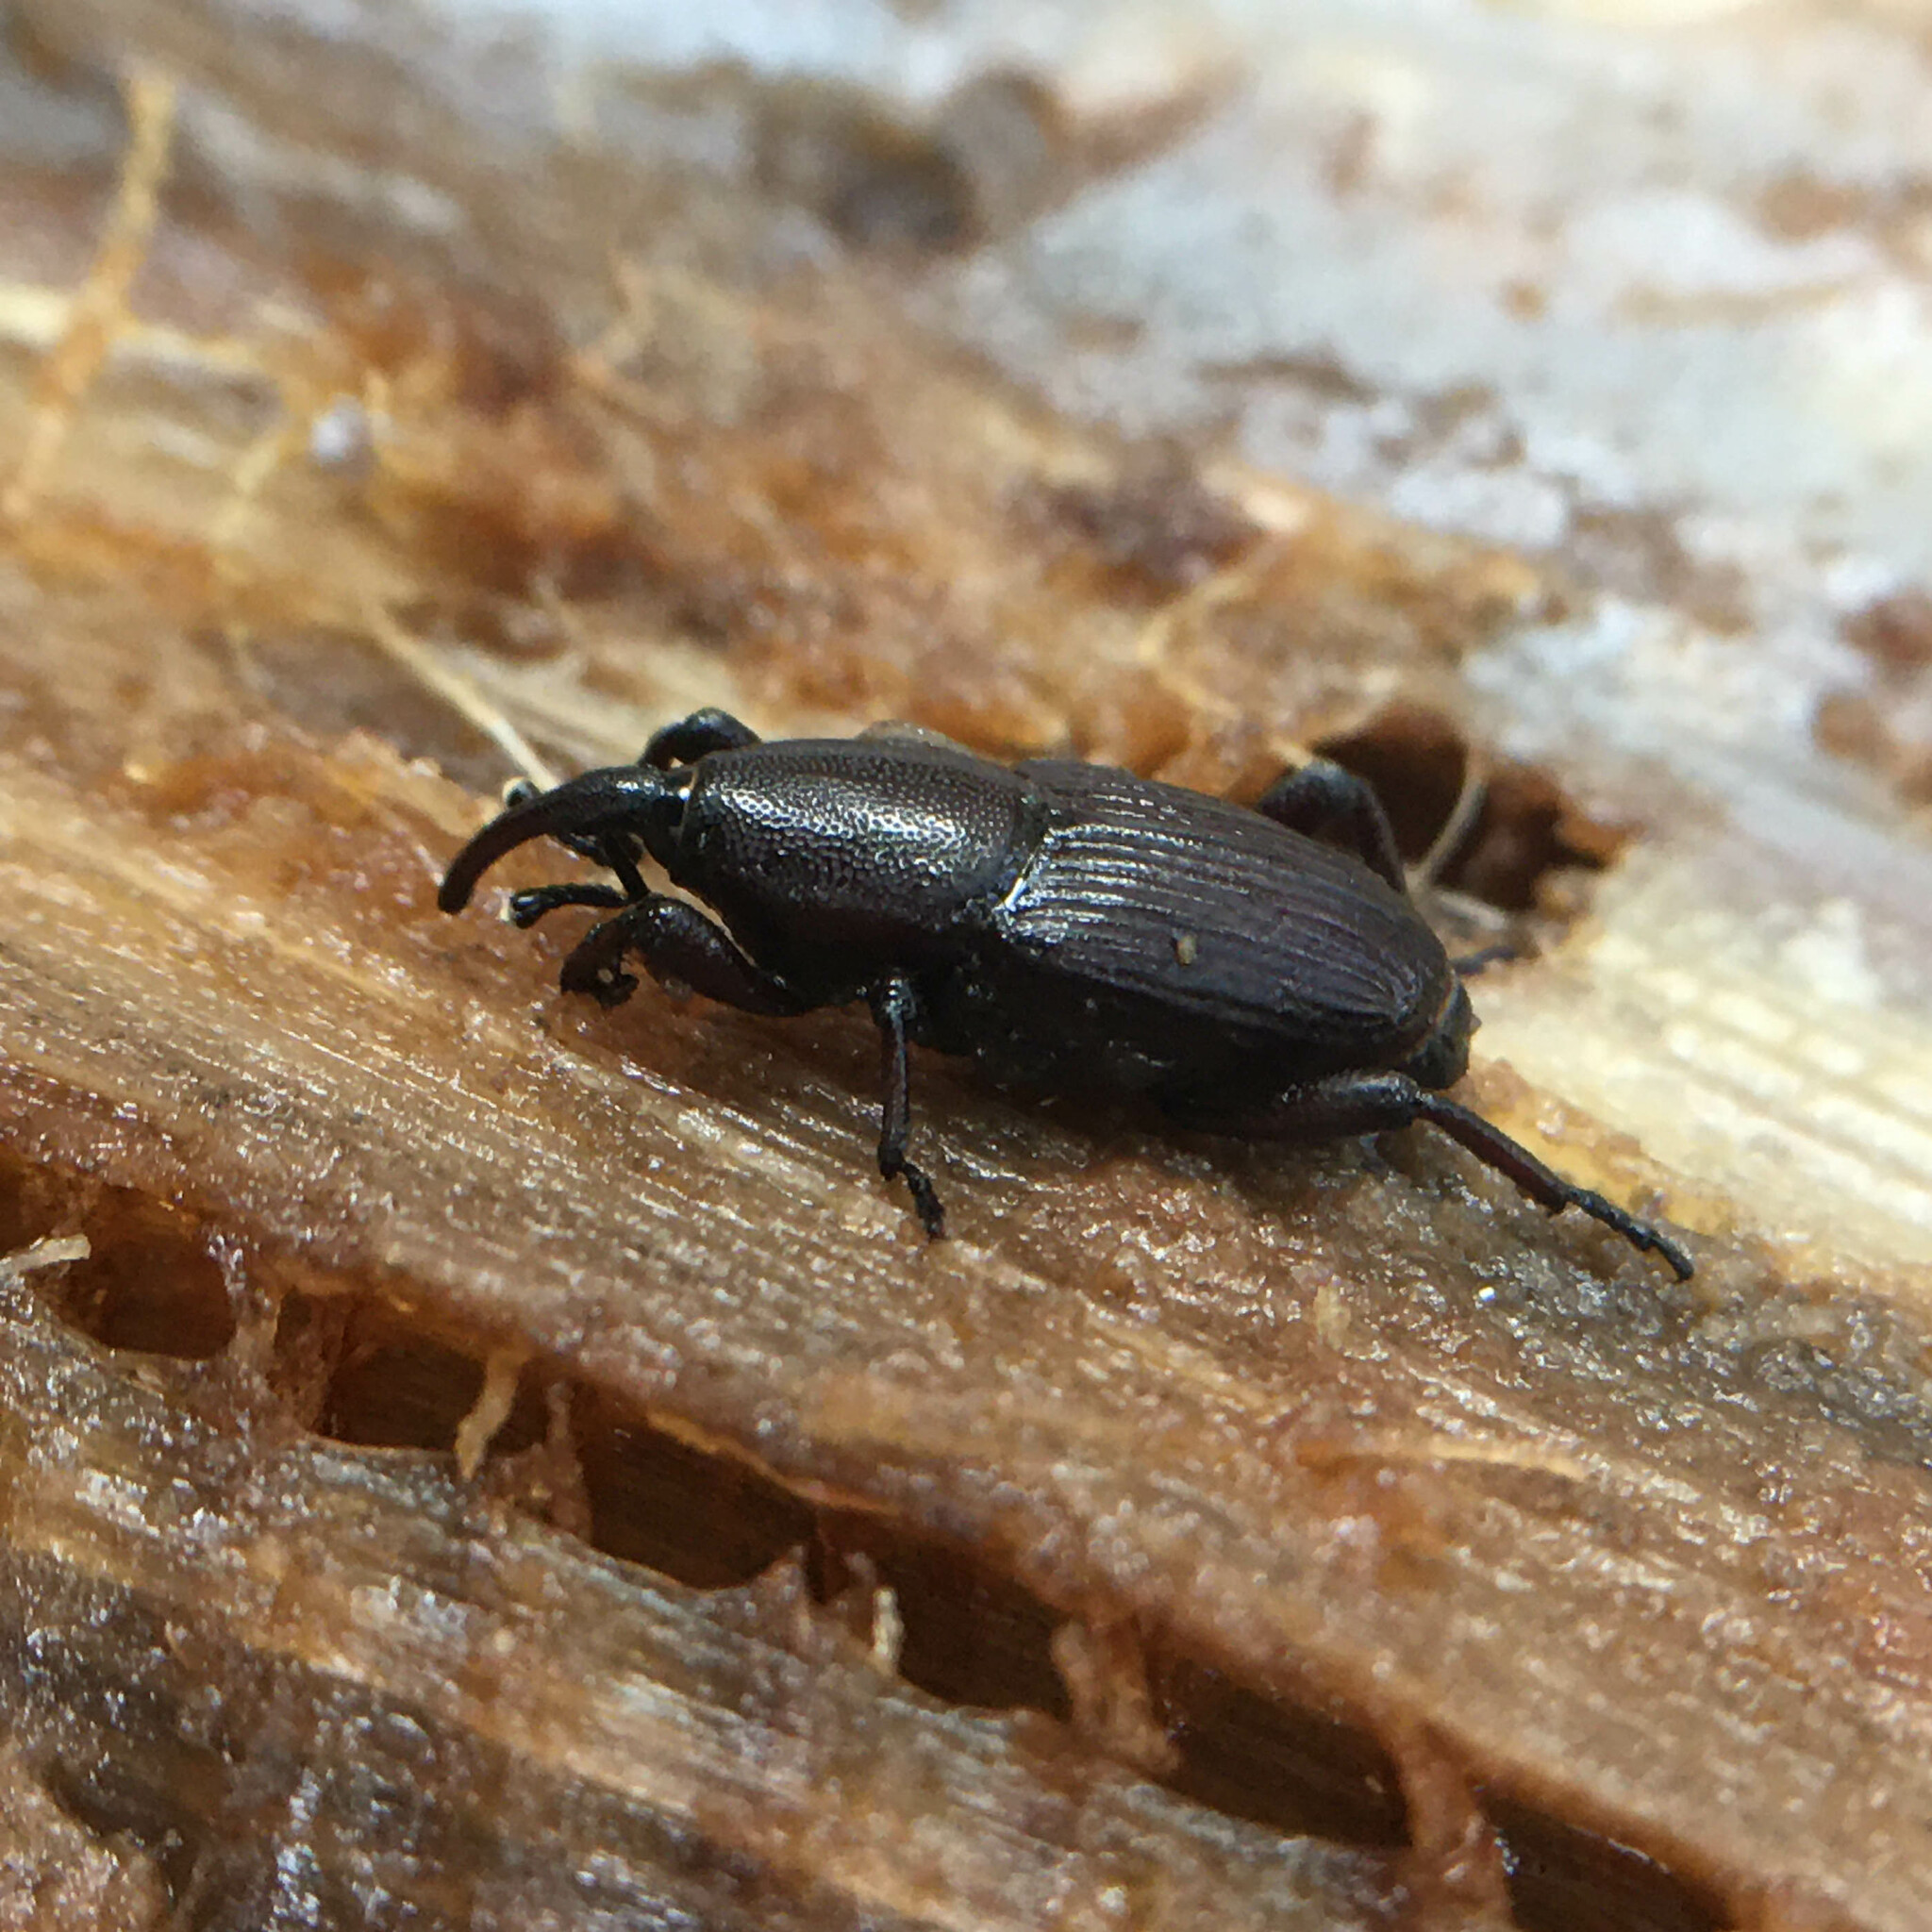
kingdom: Animalia
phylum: Arthropoda
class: Insecta
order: Coleoptera
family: Dryophthoridae
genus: Cosmopolites
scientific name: Cosmopolites sordidus
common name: Palm weevil
